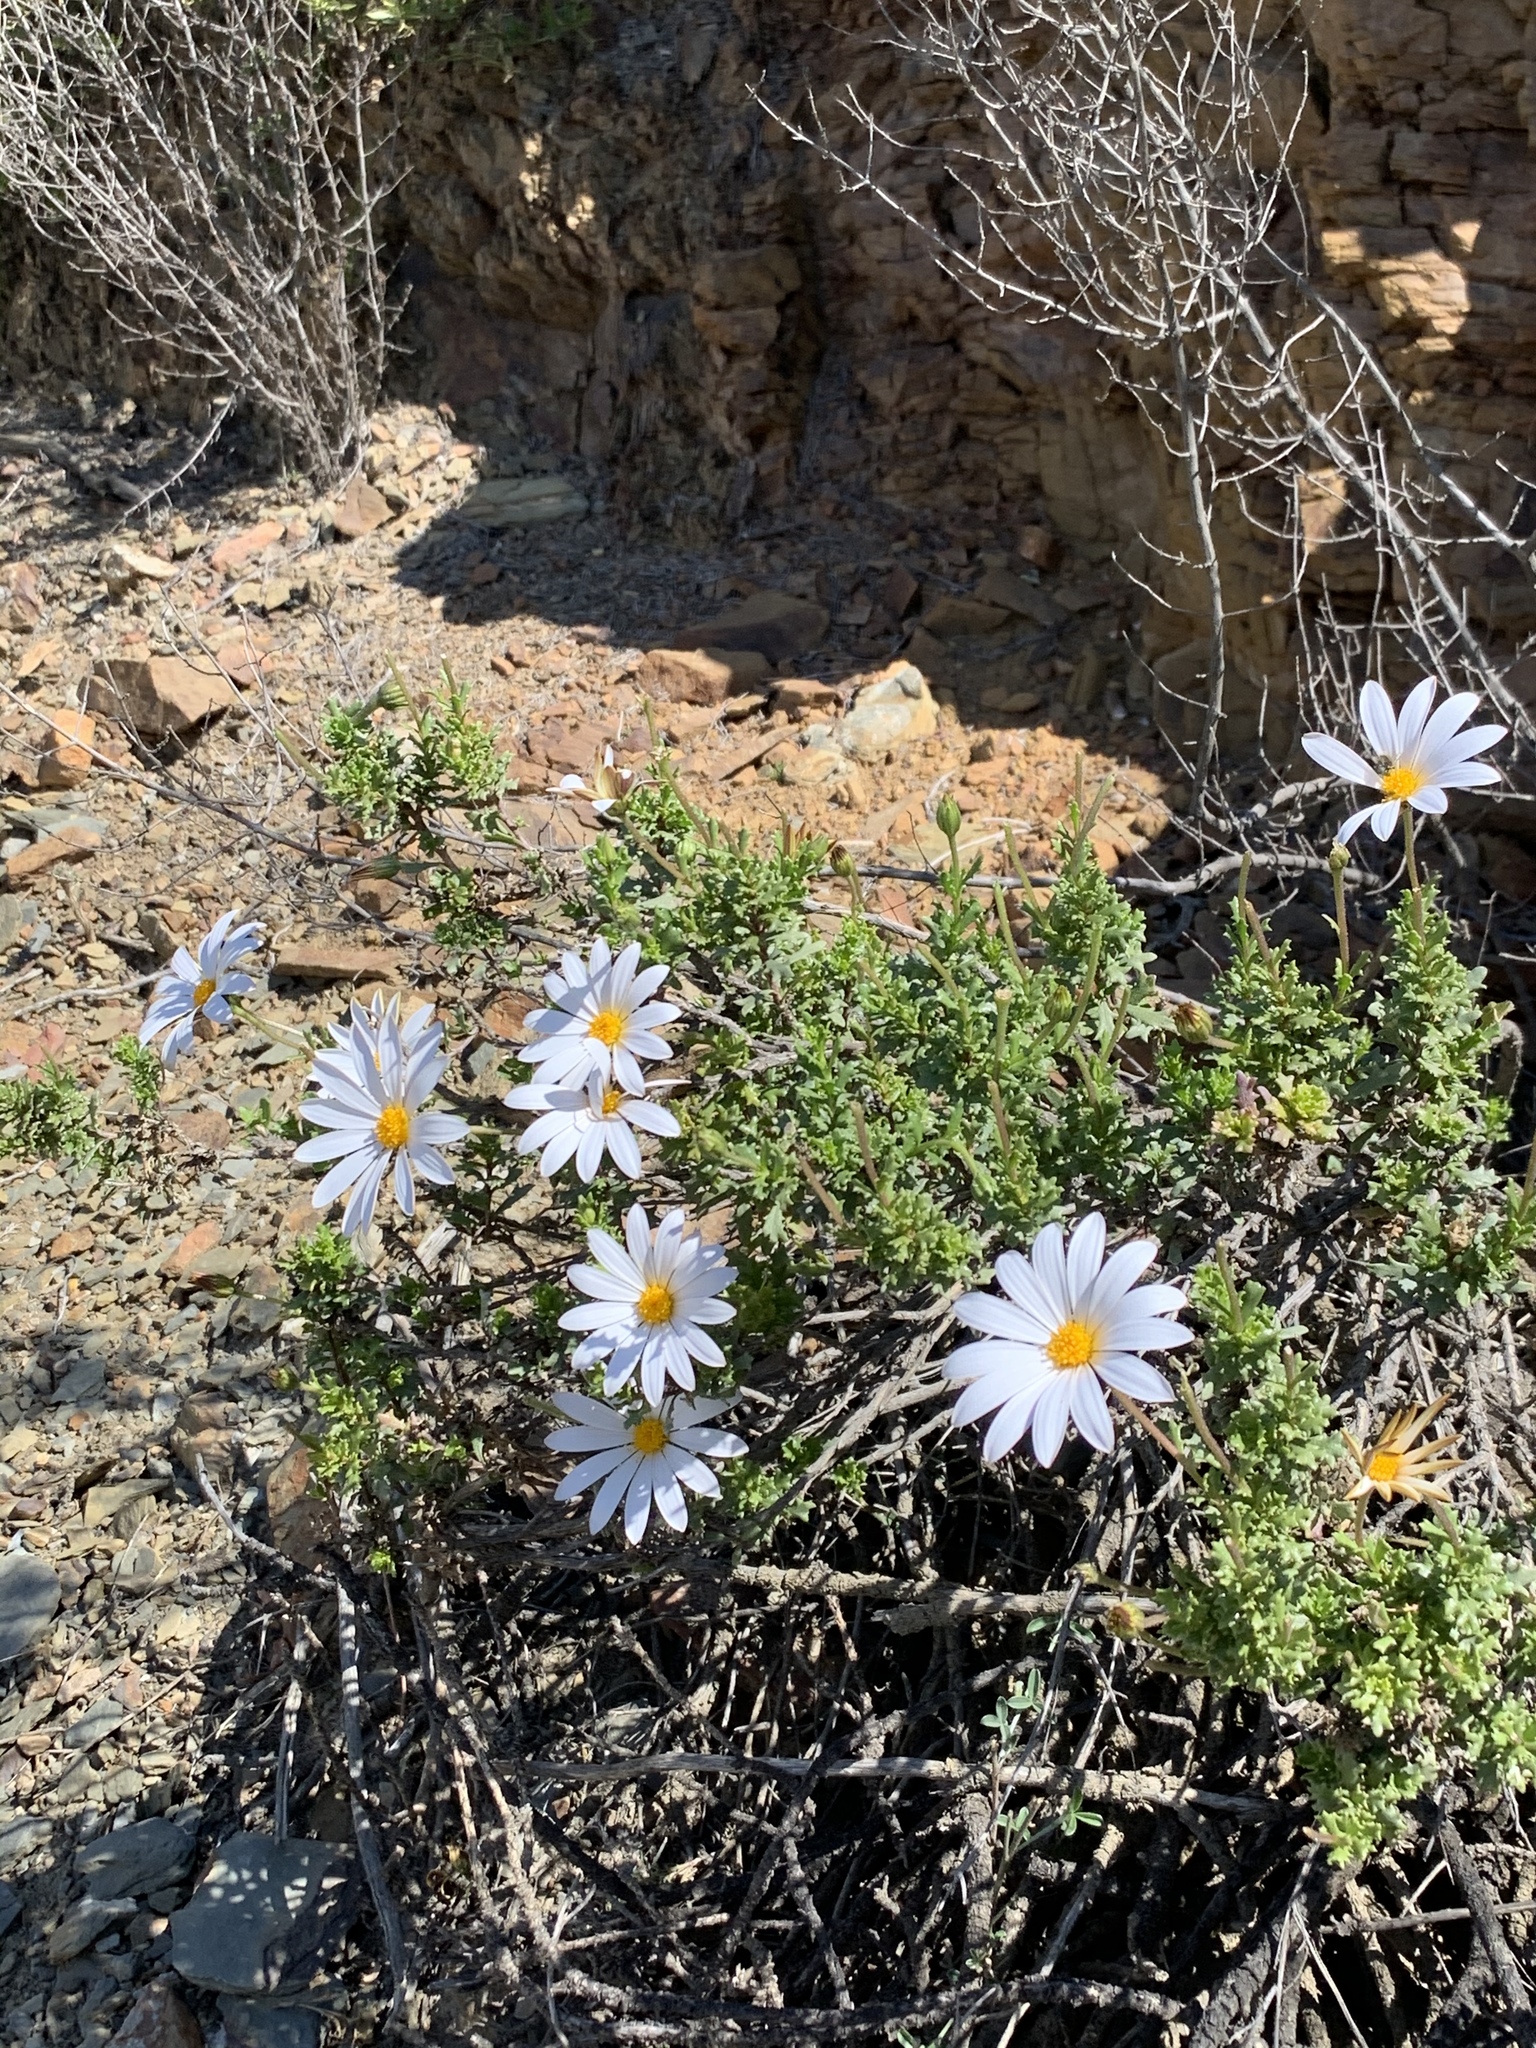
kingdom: Plantae
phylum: Tracheophyta
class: Magnoliopsida
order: Asterales
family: Asteraceae
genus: Dimorphotheca
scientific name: Dimorphotheca cuneata
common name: Daisy
